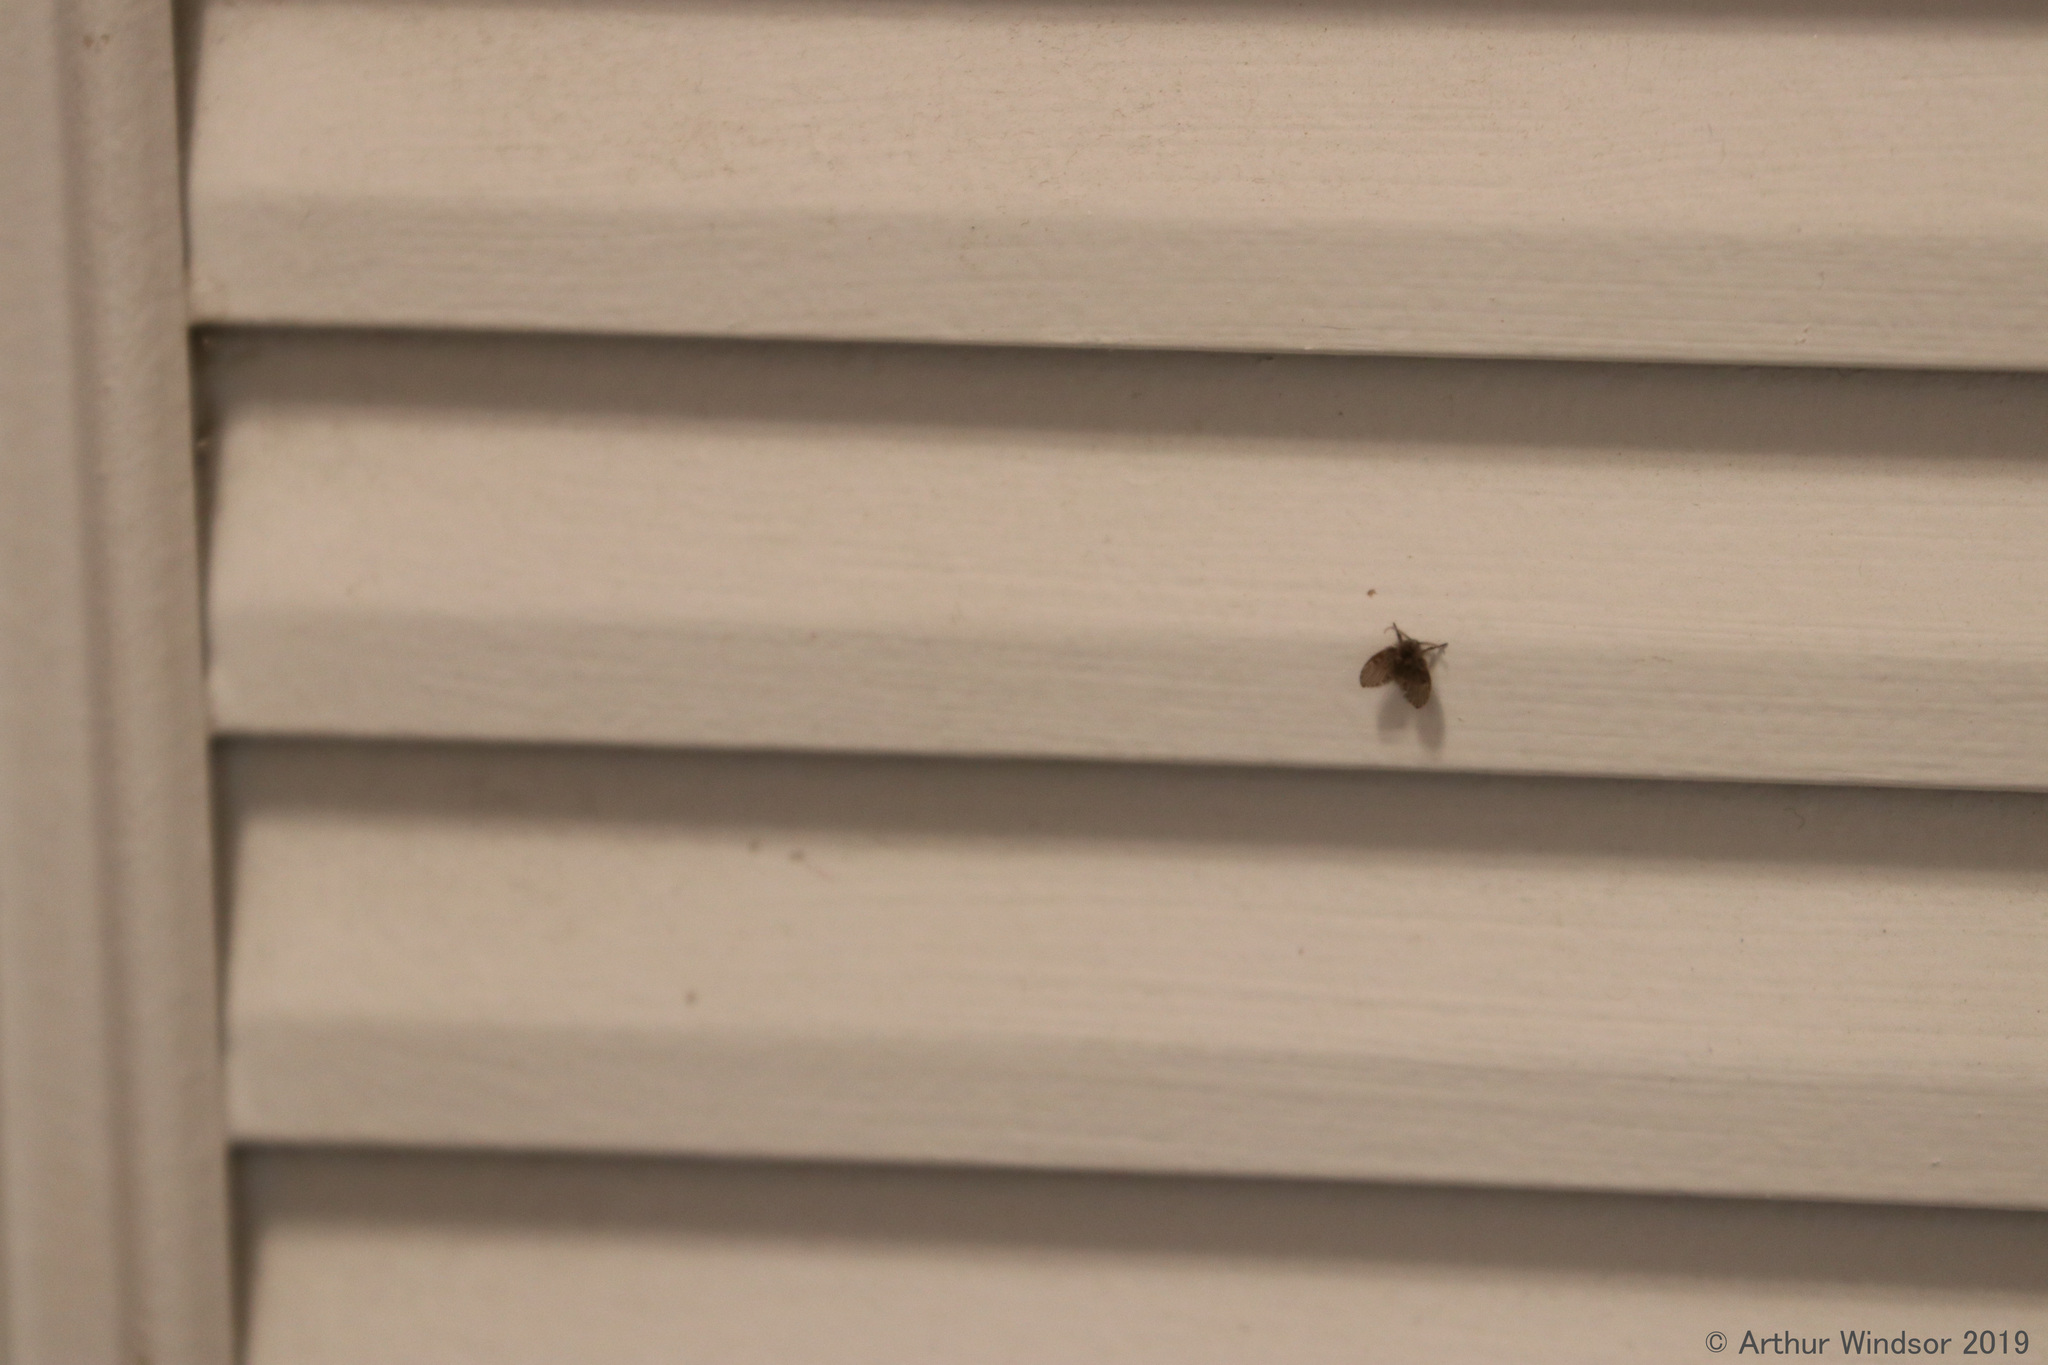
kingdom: Animalia
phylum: Arthropoda
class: Insecta
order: Diptera
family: Psychodidae
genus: Clogmia
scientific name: Clogmia albipunctatus
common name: White-spotted moth fly
